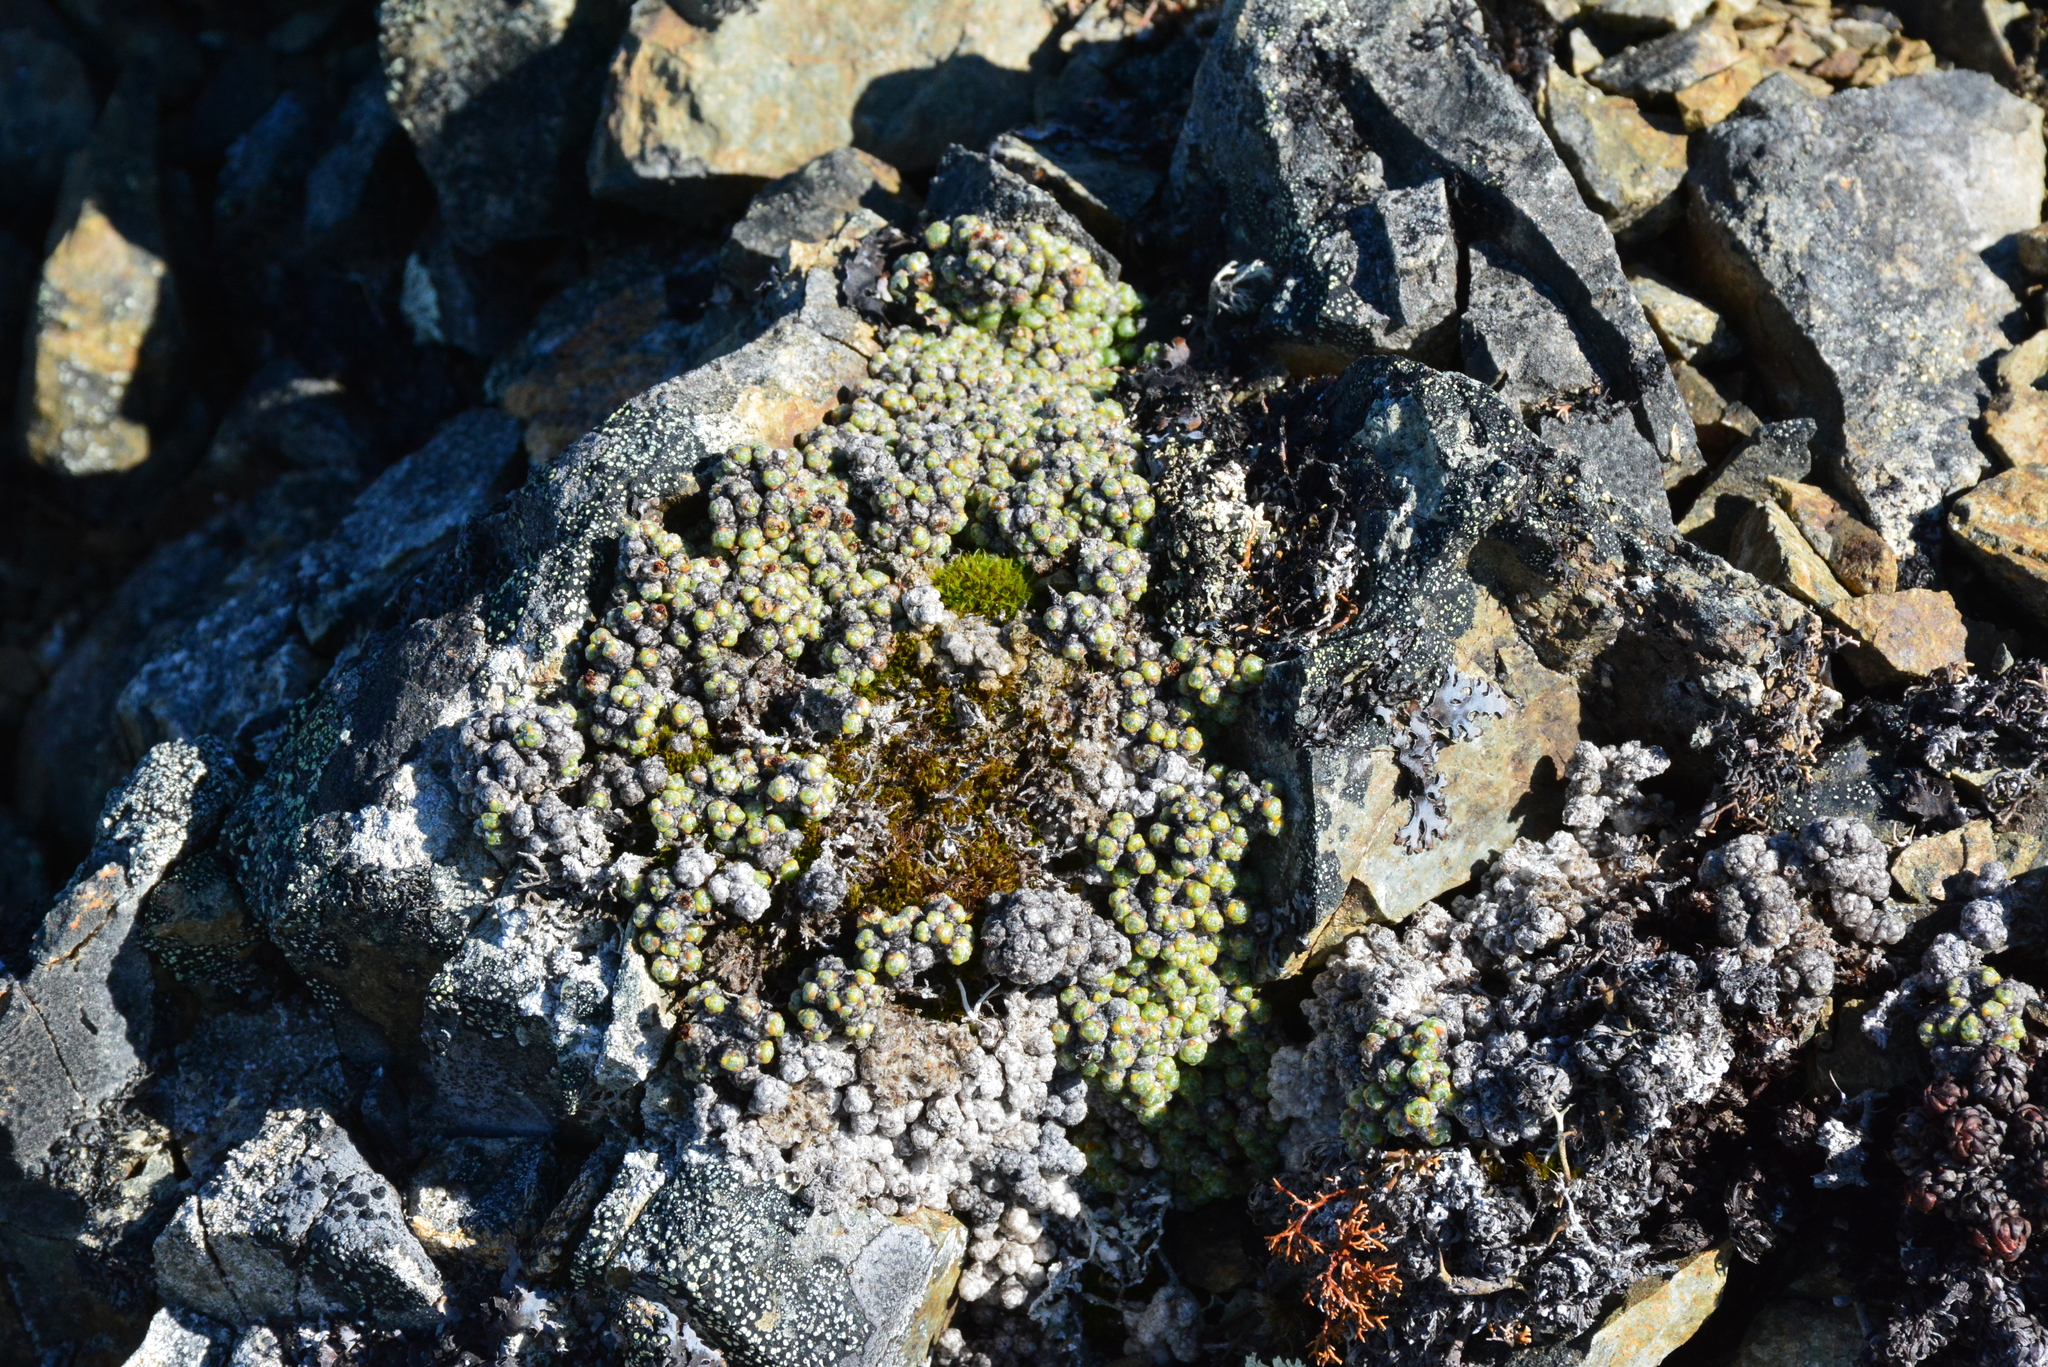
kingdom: Plantae
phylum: Tracheophyta
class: Magnoliopsida
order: Saxifragales
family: Saxifragaceae
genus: Saxifraga
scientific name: Saxifraga eschscholtzii
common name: Eschscholtz's saxifrage
